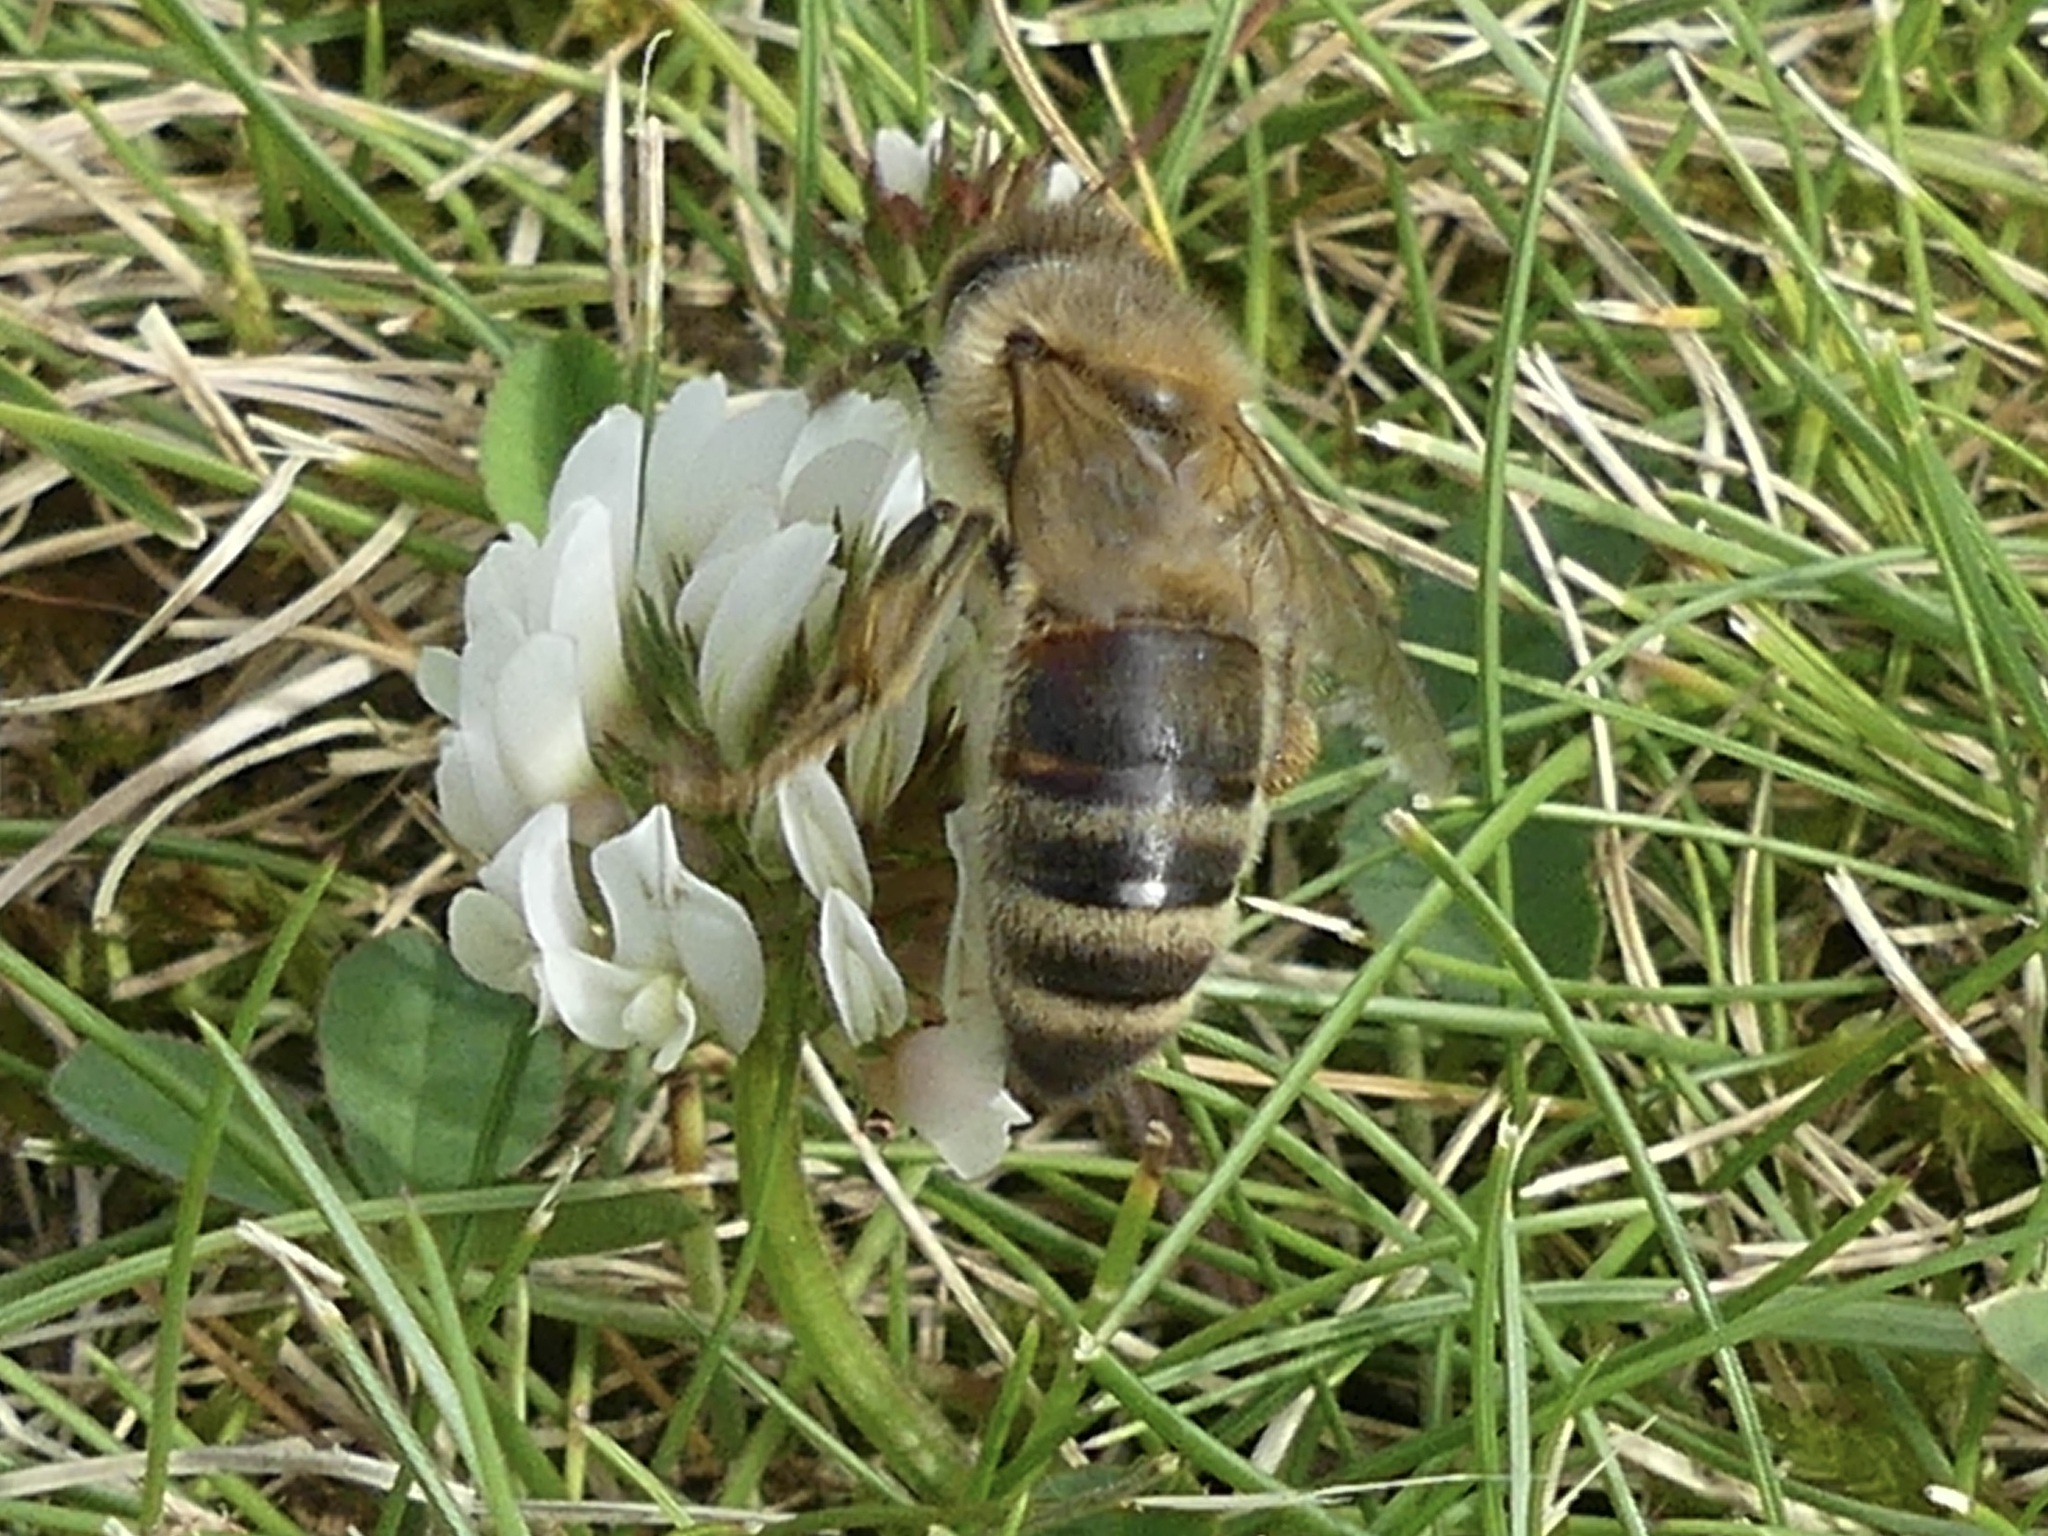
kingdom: Animalia
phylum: Arthropoda
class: Insecta
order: Hymenoptera
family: Apidae
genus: Apis
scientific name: Apis mellifera
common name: Honey bee
